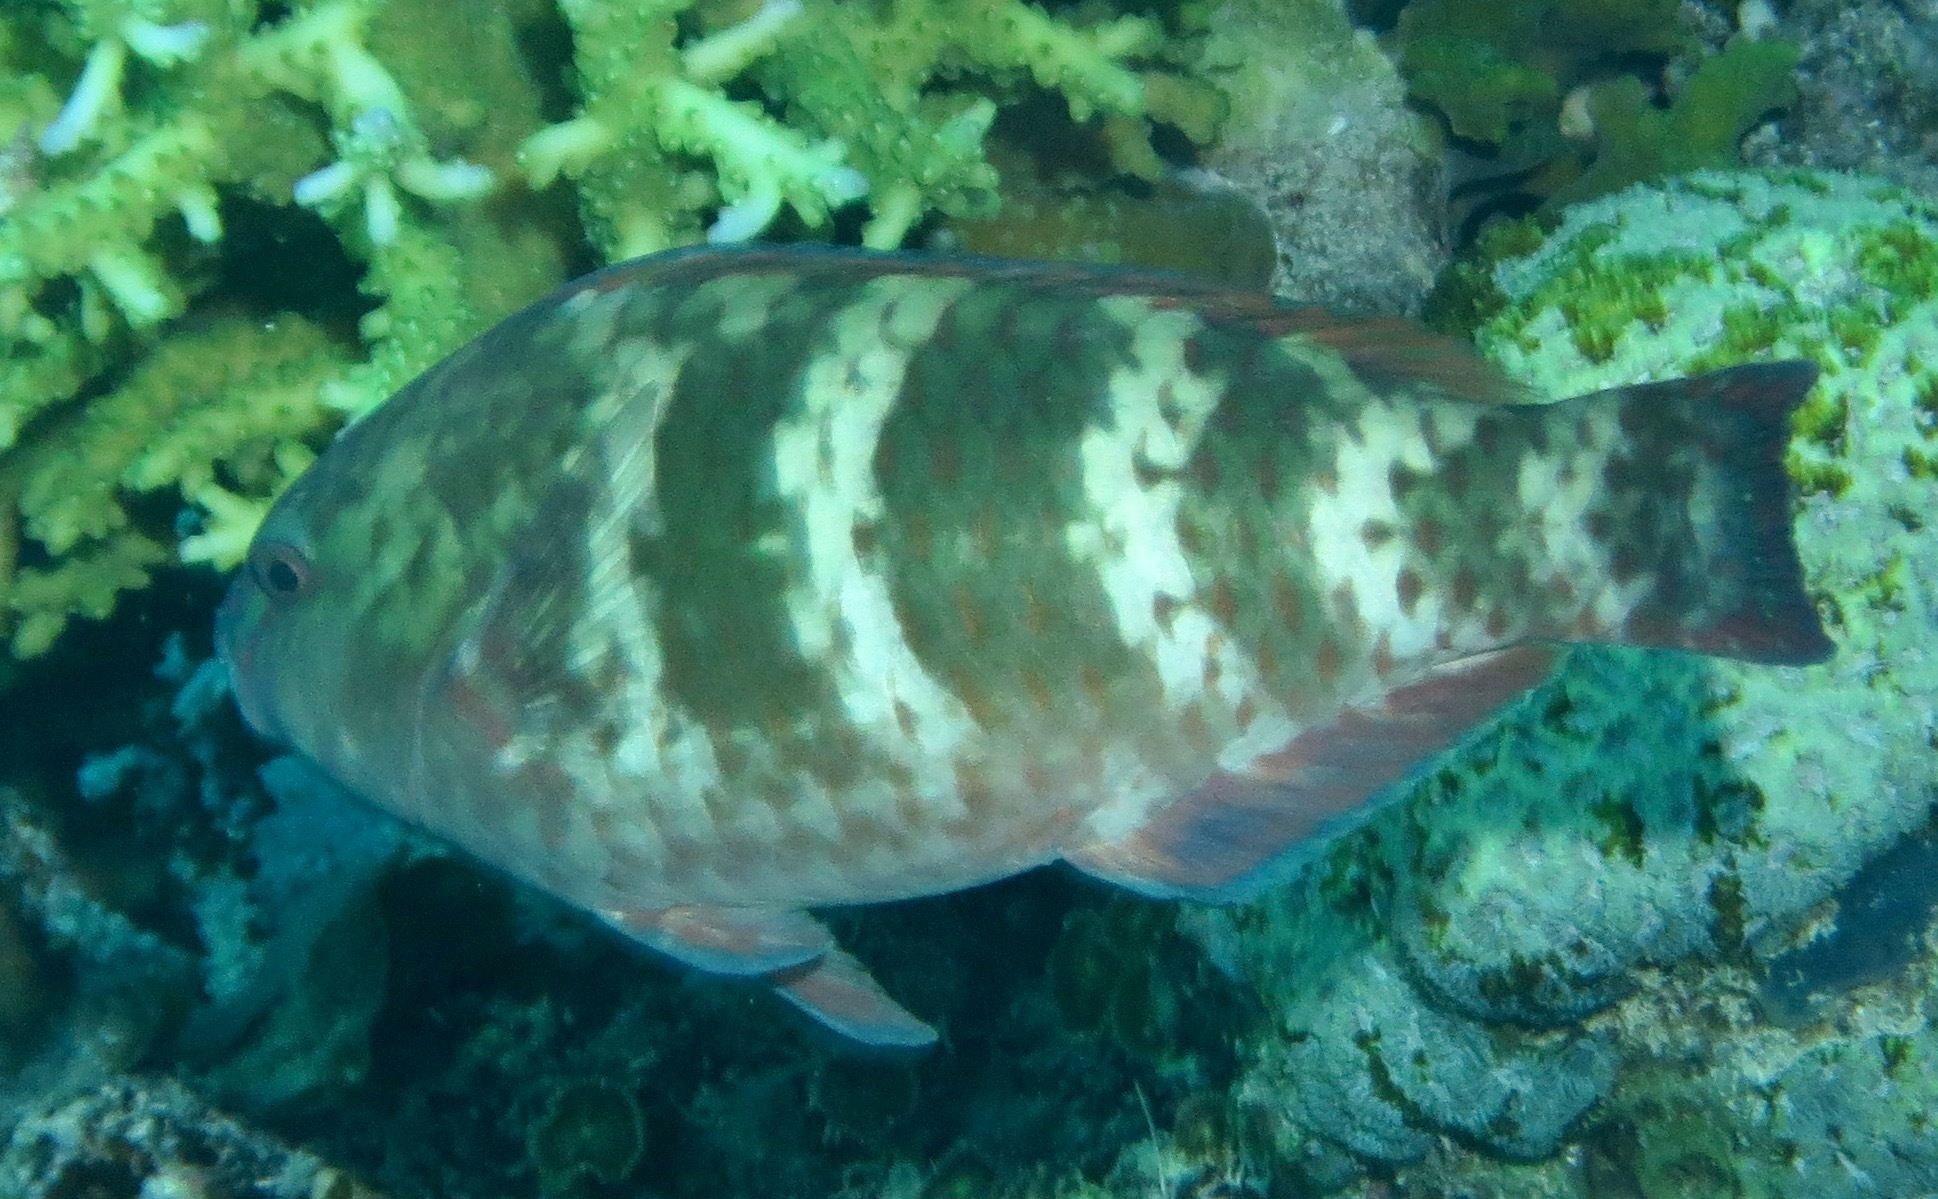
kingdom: Animalia
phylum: Chordata
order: Perciformes
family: Scaridae
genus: Scarus
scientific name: Scarus schlegeli
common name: Schlegel's parrotfish
